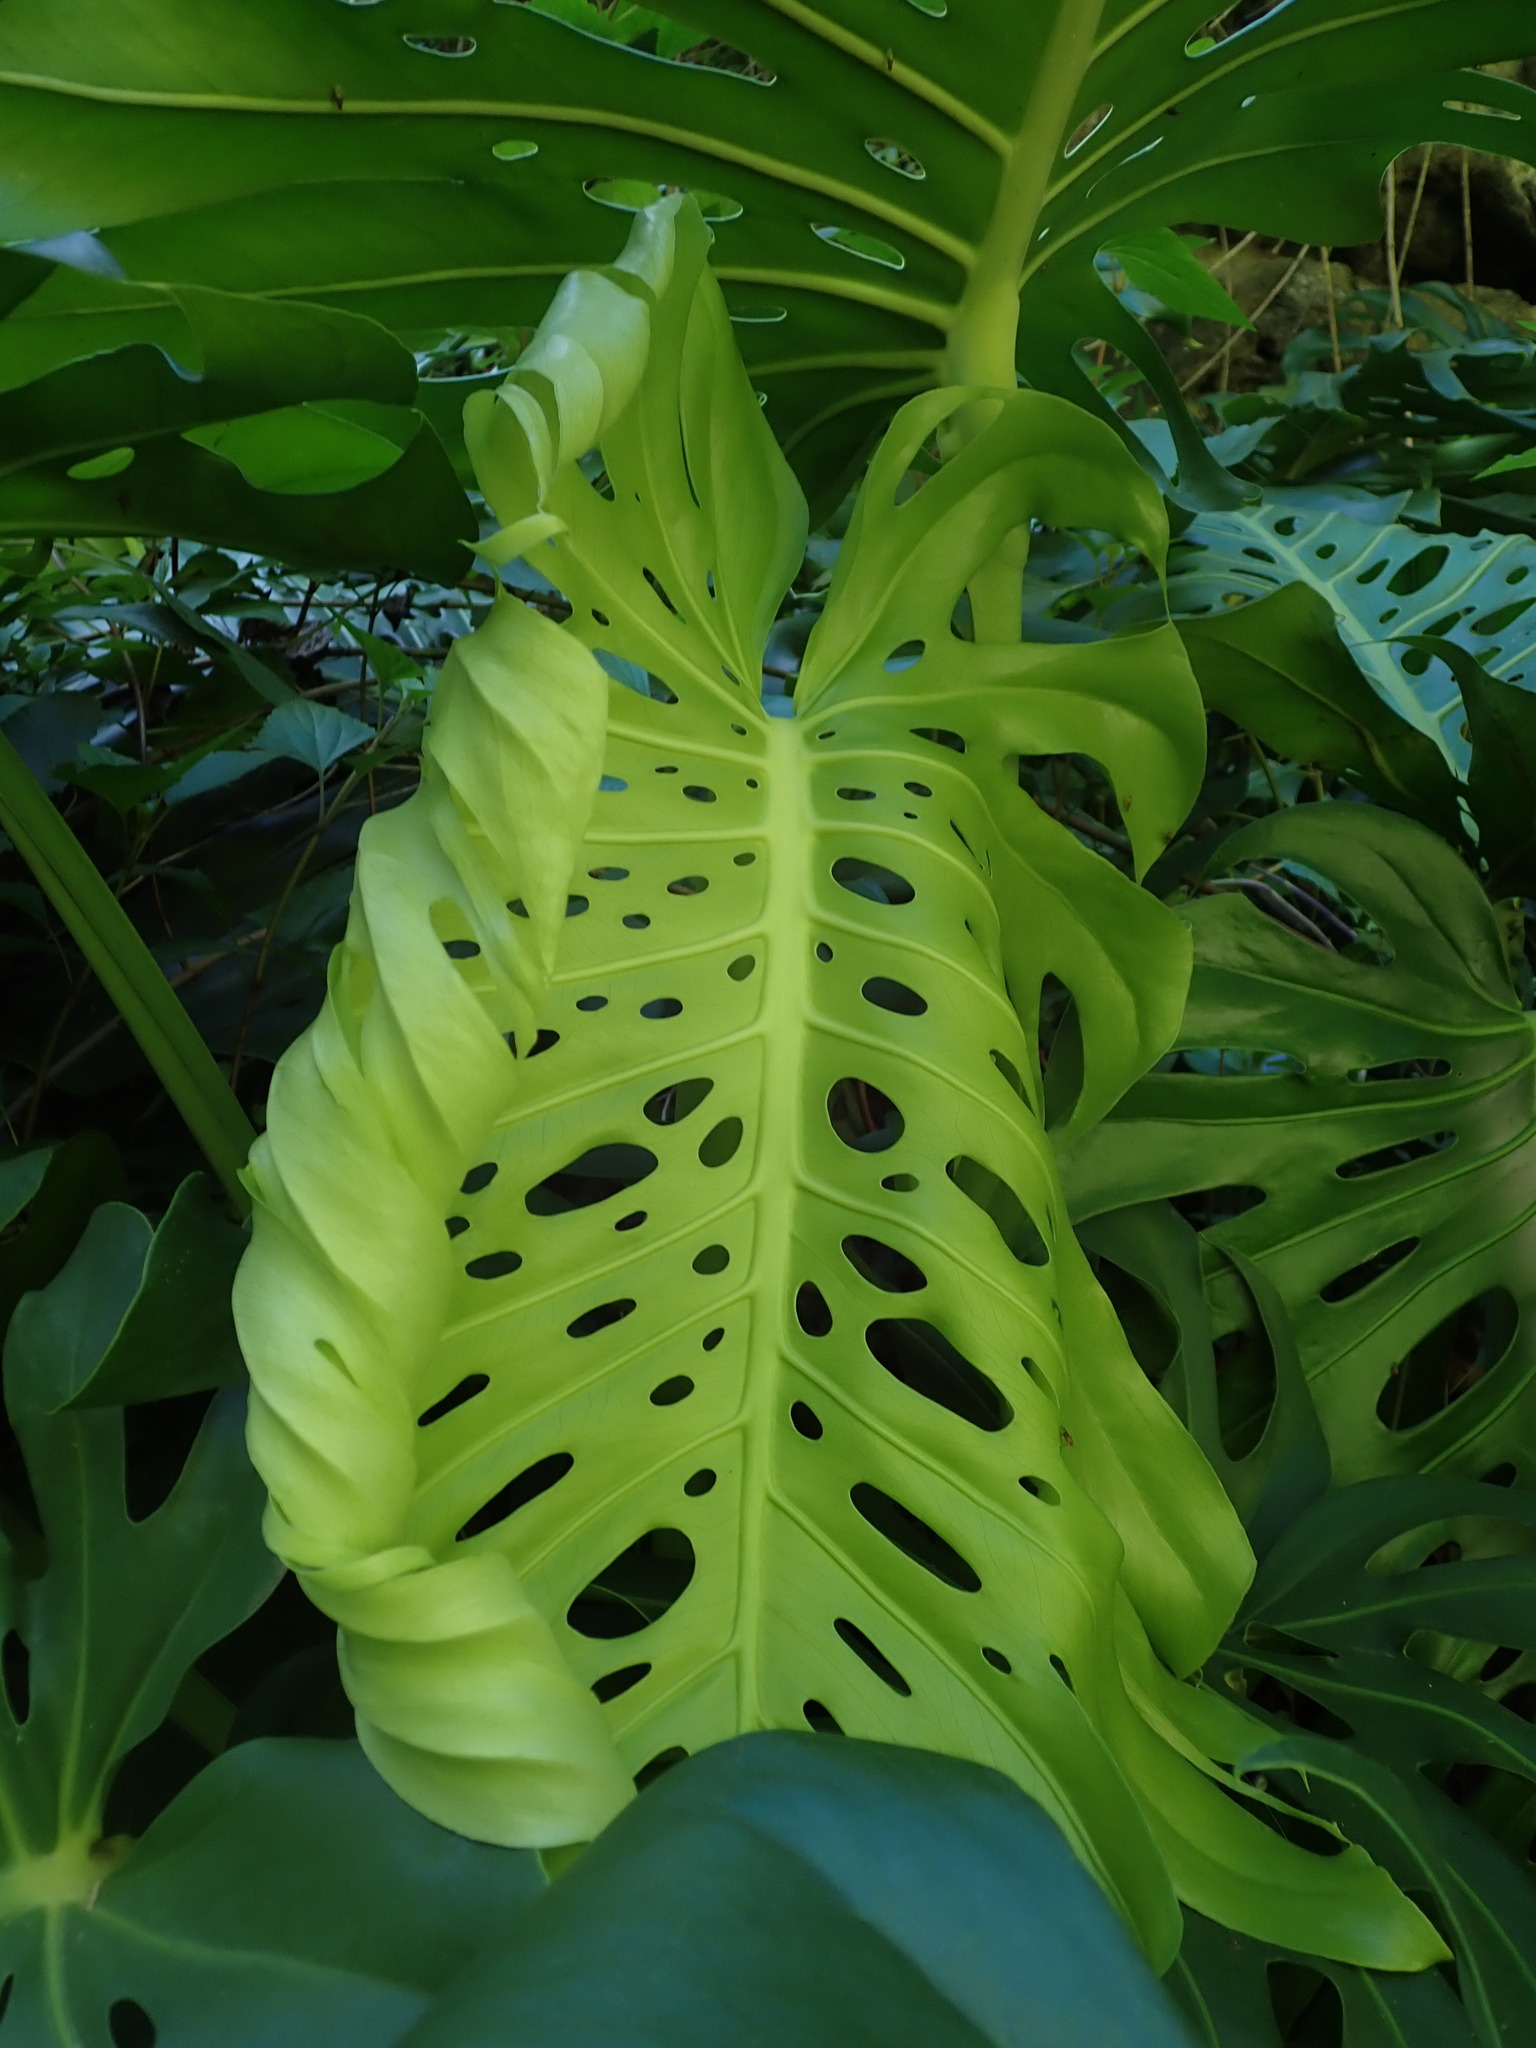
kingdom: Plantae
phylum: Tracheophyta
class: Liliopsida
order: Alismatales
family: Araceae
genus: Monstera
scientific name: Monstera deliciosa
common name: Cut-leaf-philodendron
